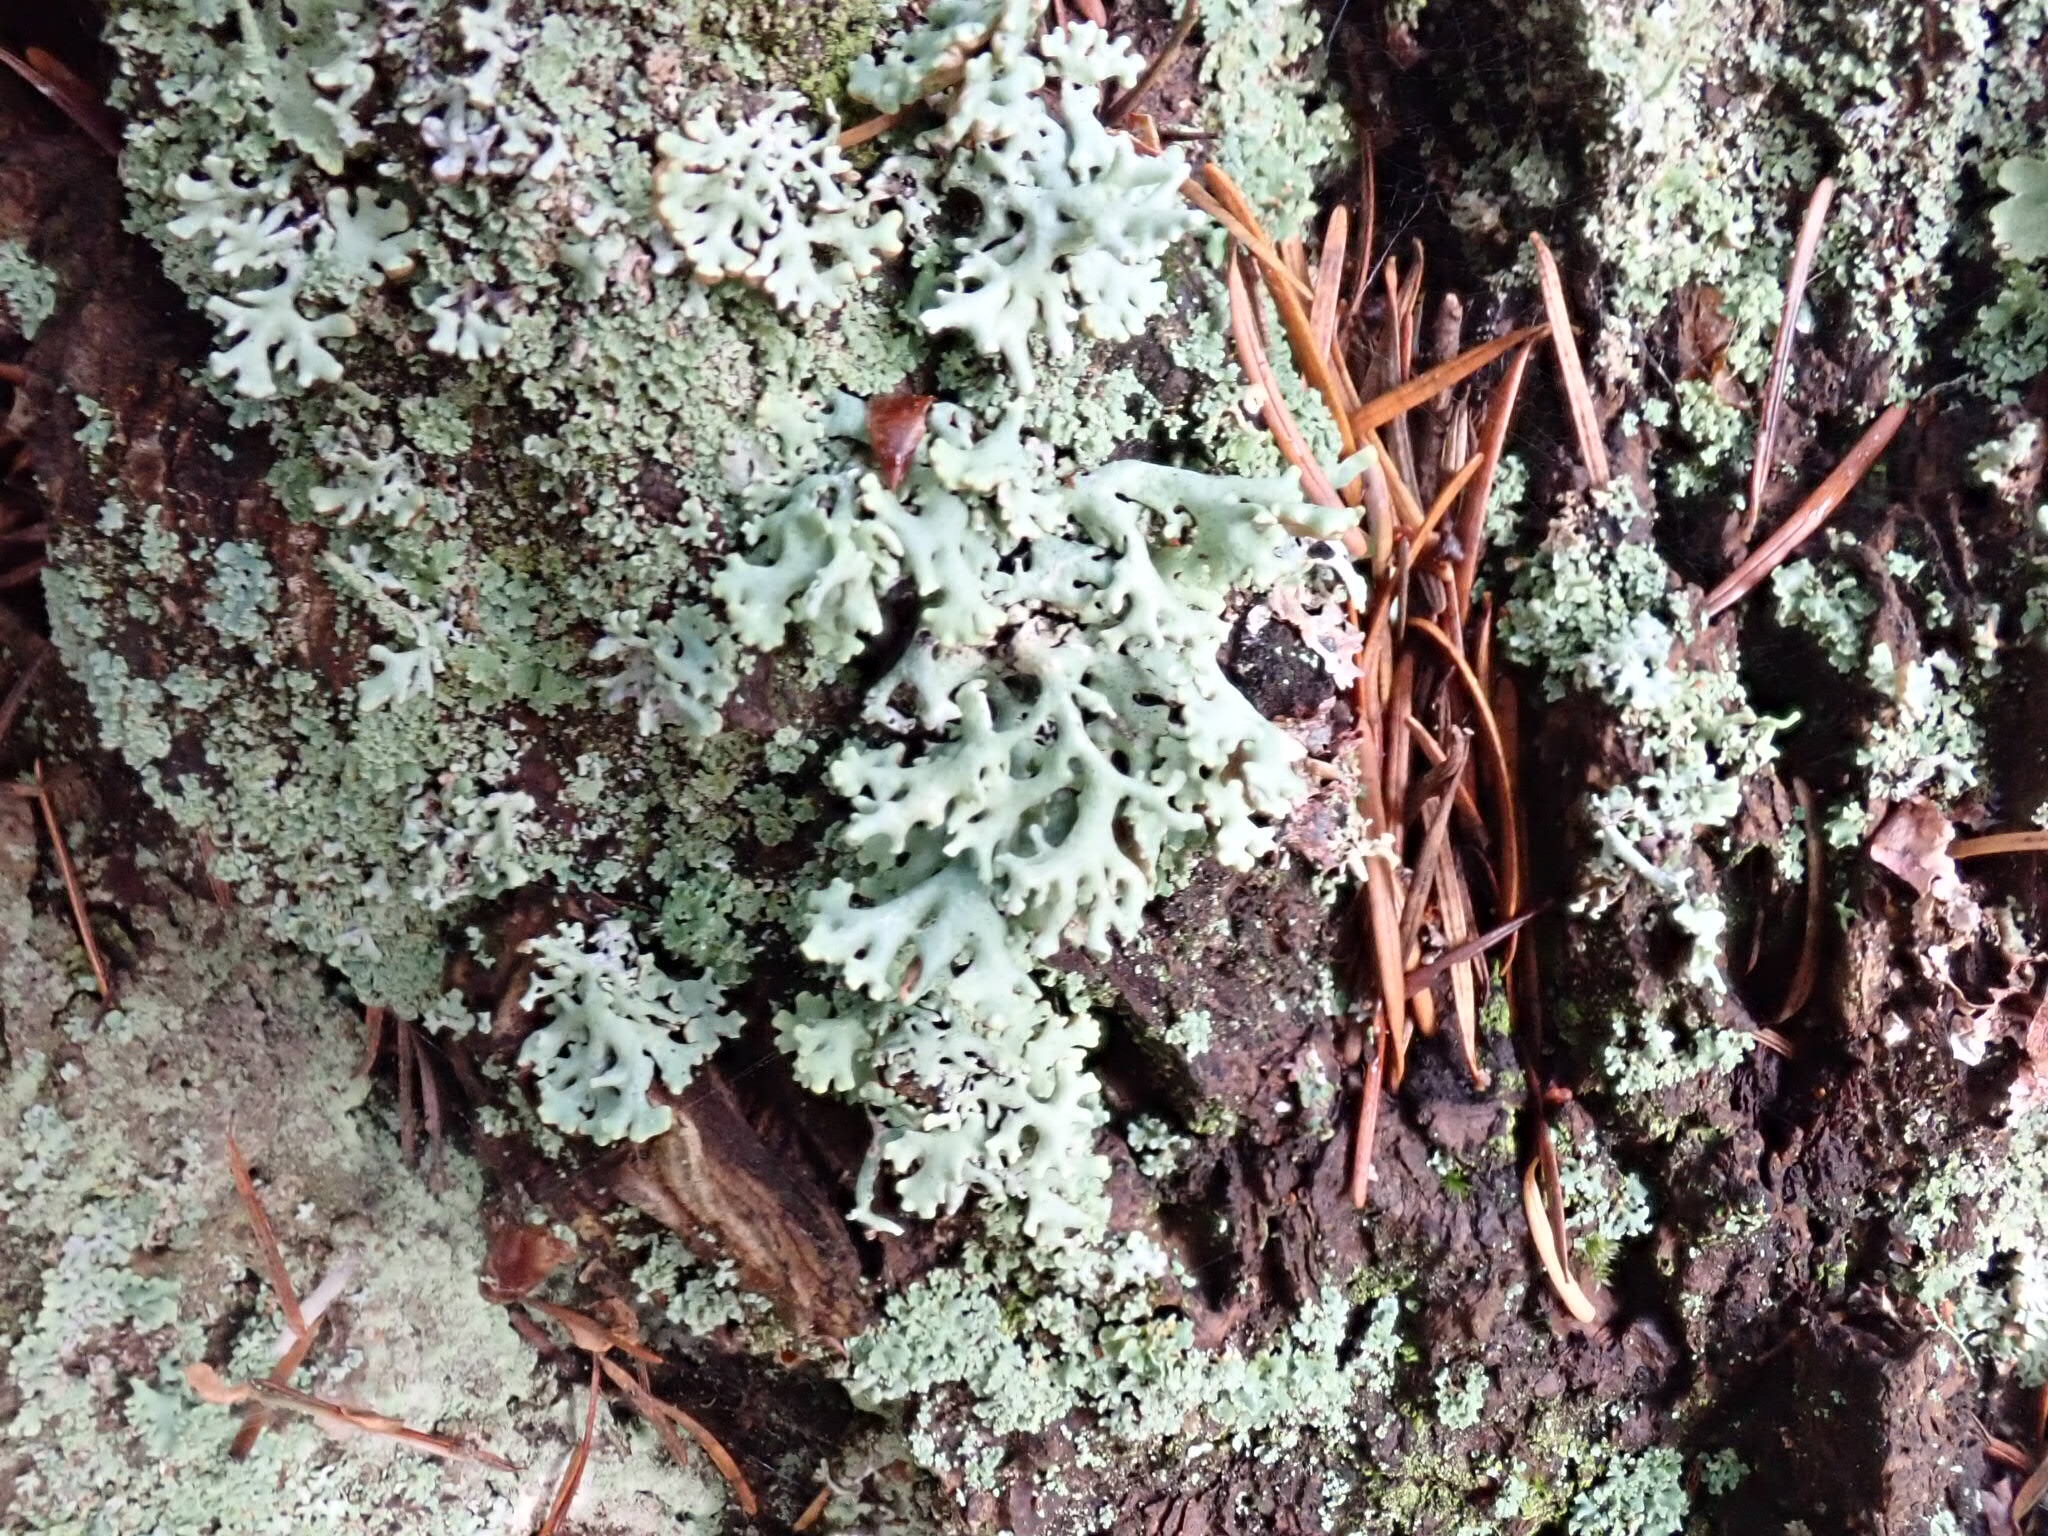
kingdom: Fungi
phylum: Ascomycota
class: Lecanoromycetes
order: Lecanorales
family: Parmeliaceae
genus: Hypogymnia
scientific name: Hypogymnia physodes
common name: Dark crottle
